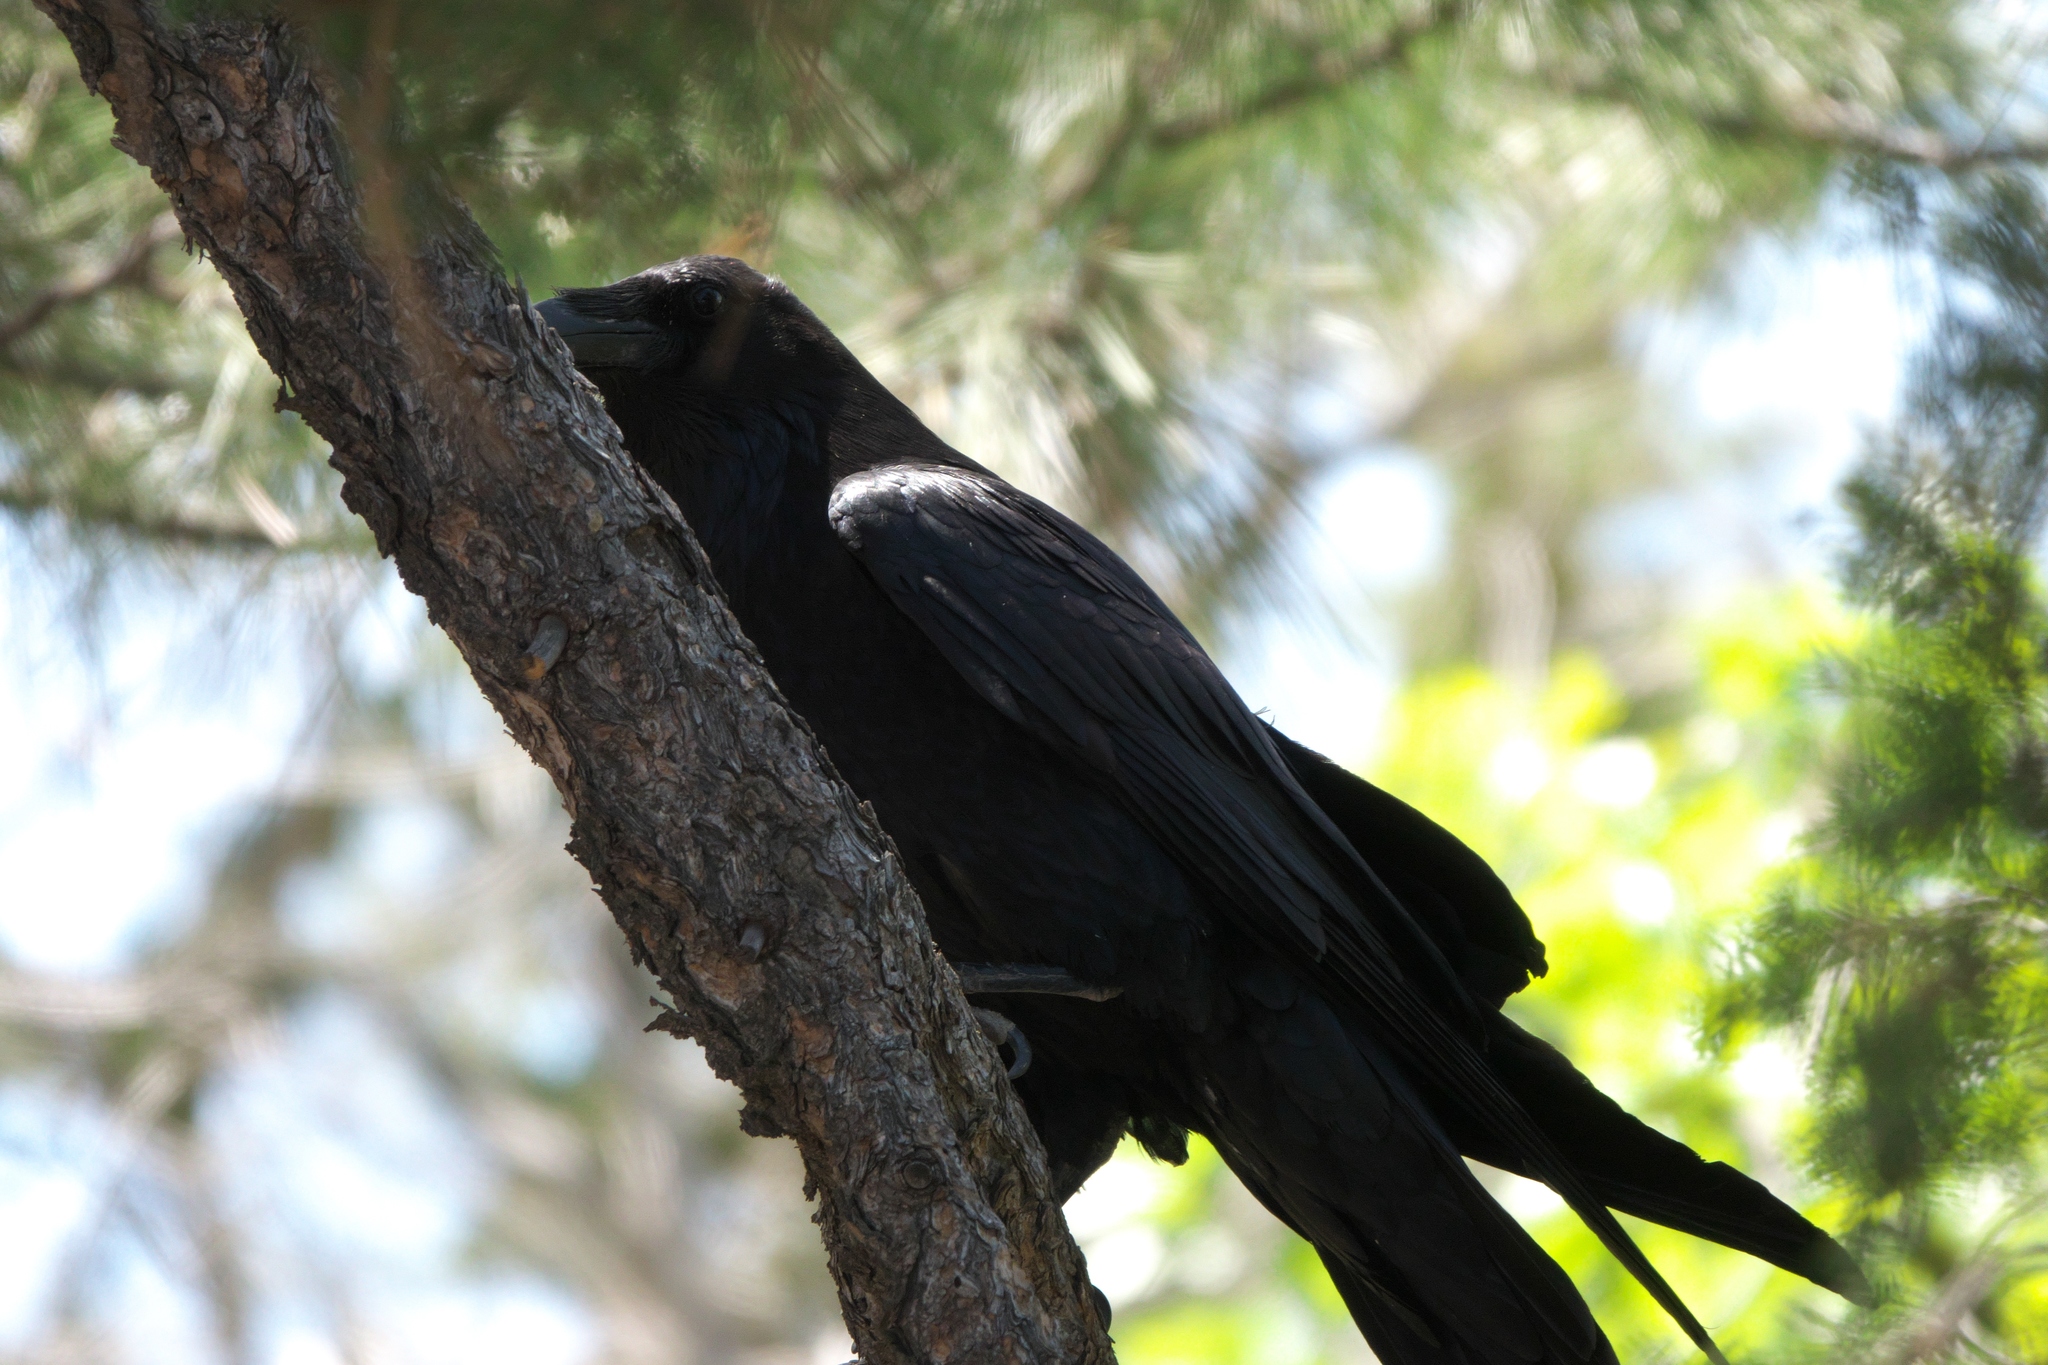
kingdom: Animalia
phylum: Chordata
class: Aves
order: Passeriformes
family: Corvidae
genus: Corvus
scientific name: Corvus corax
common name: Common raven
